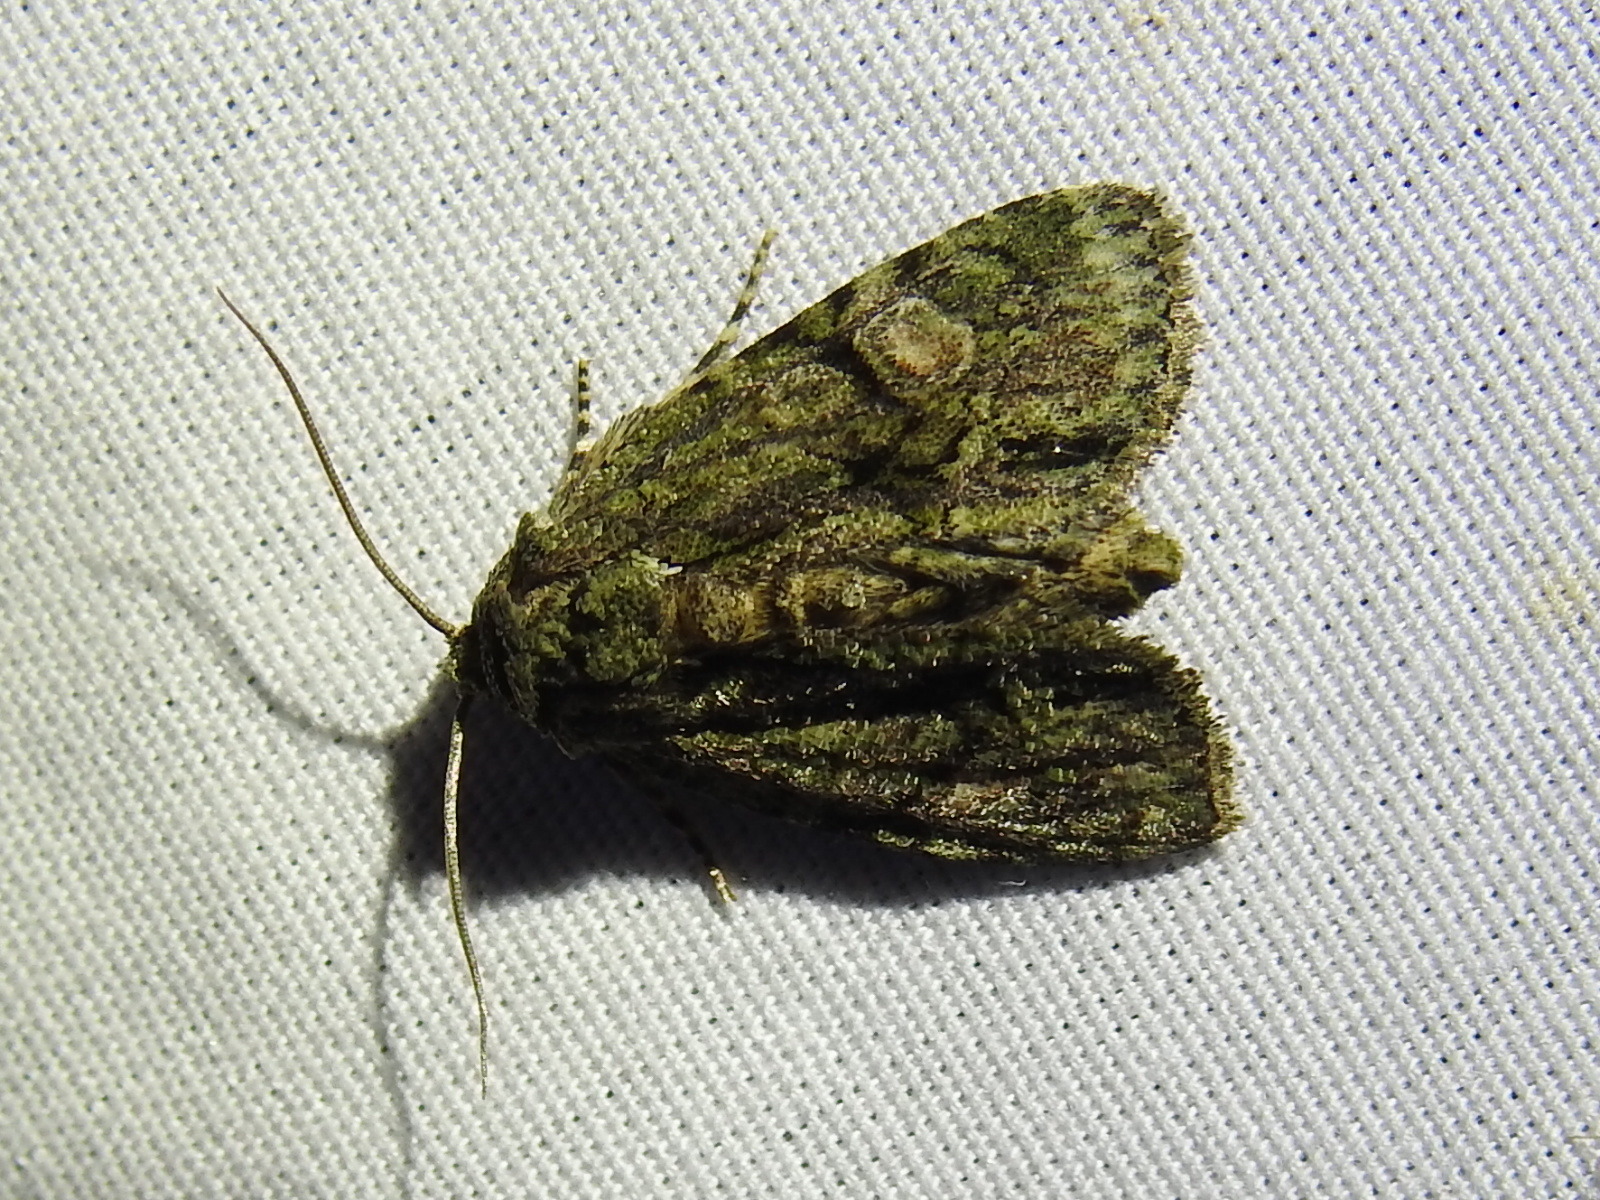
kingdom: Animalia
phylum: Arthropoda
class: Insecta
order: Lepidoptera
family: Noctuidae
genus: Phosphila
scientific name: Phosphila miselioides
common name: Spotted phosphila moth
